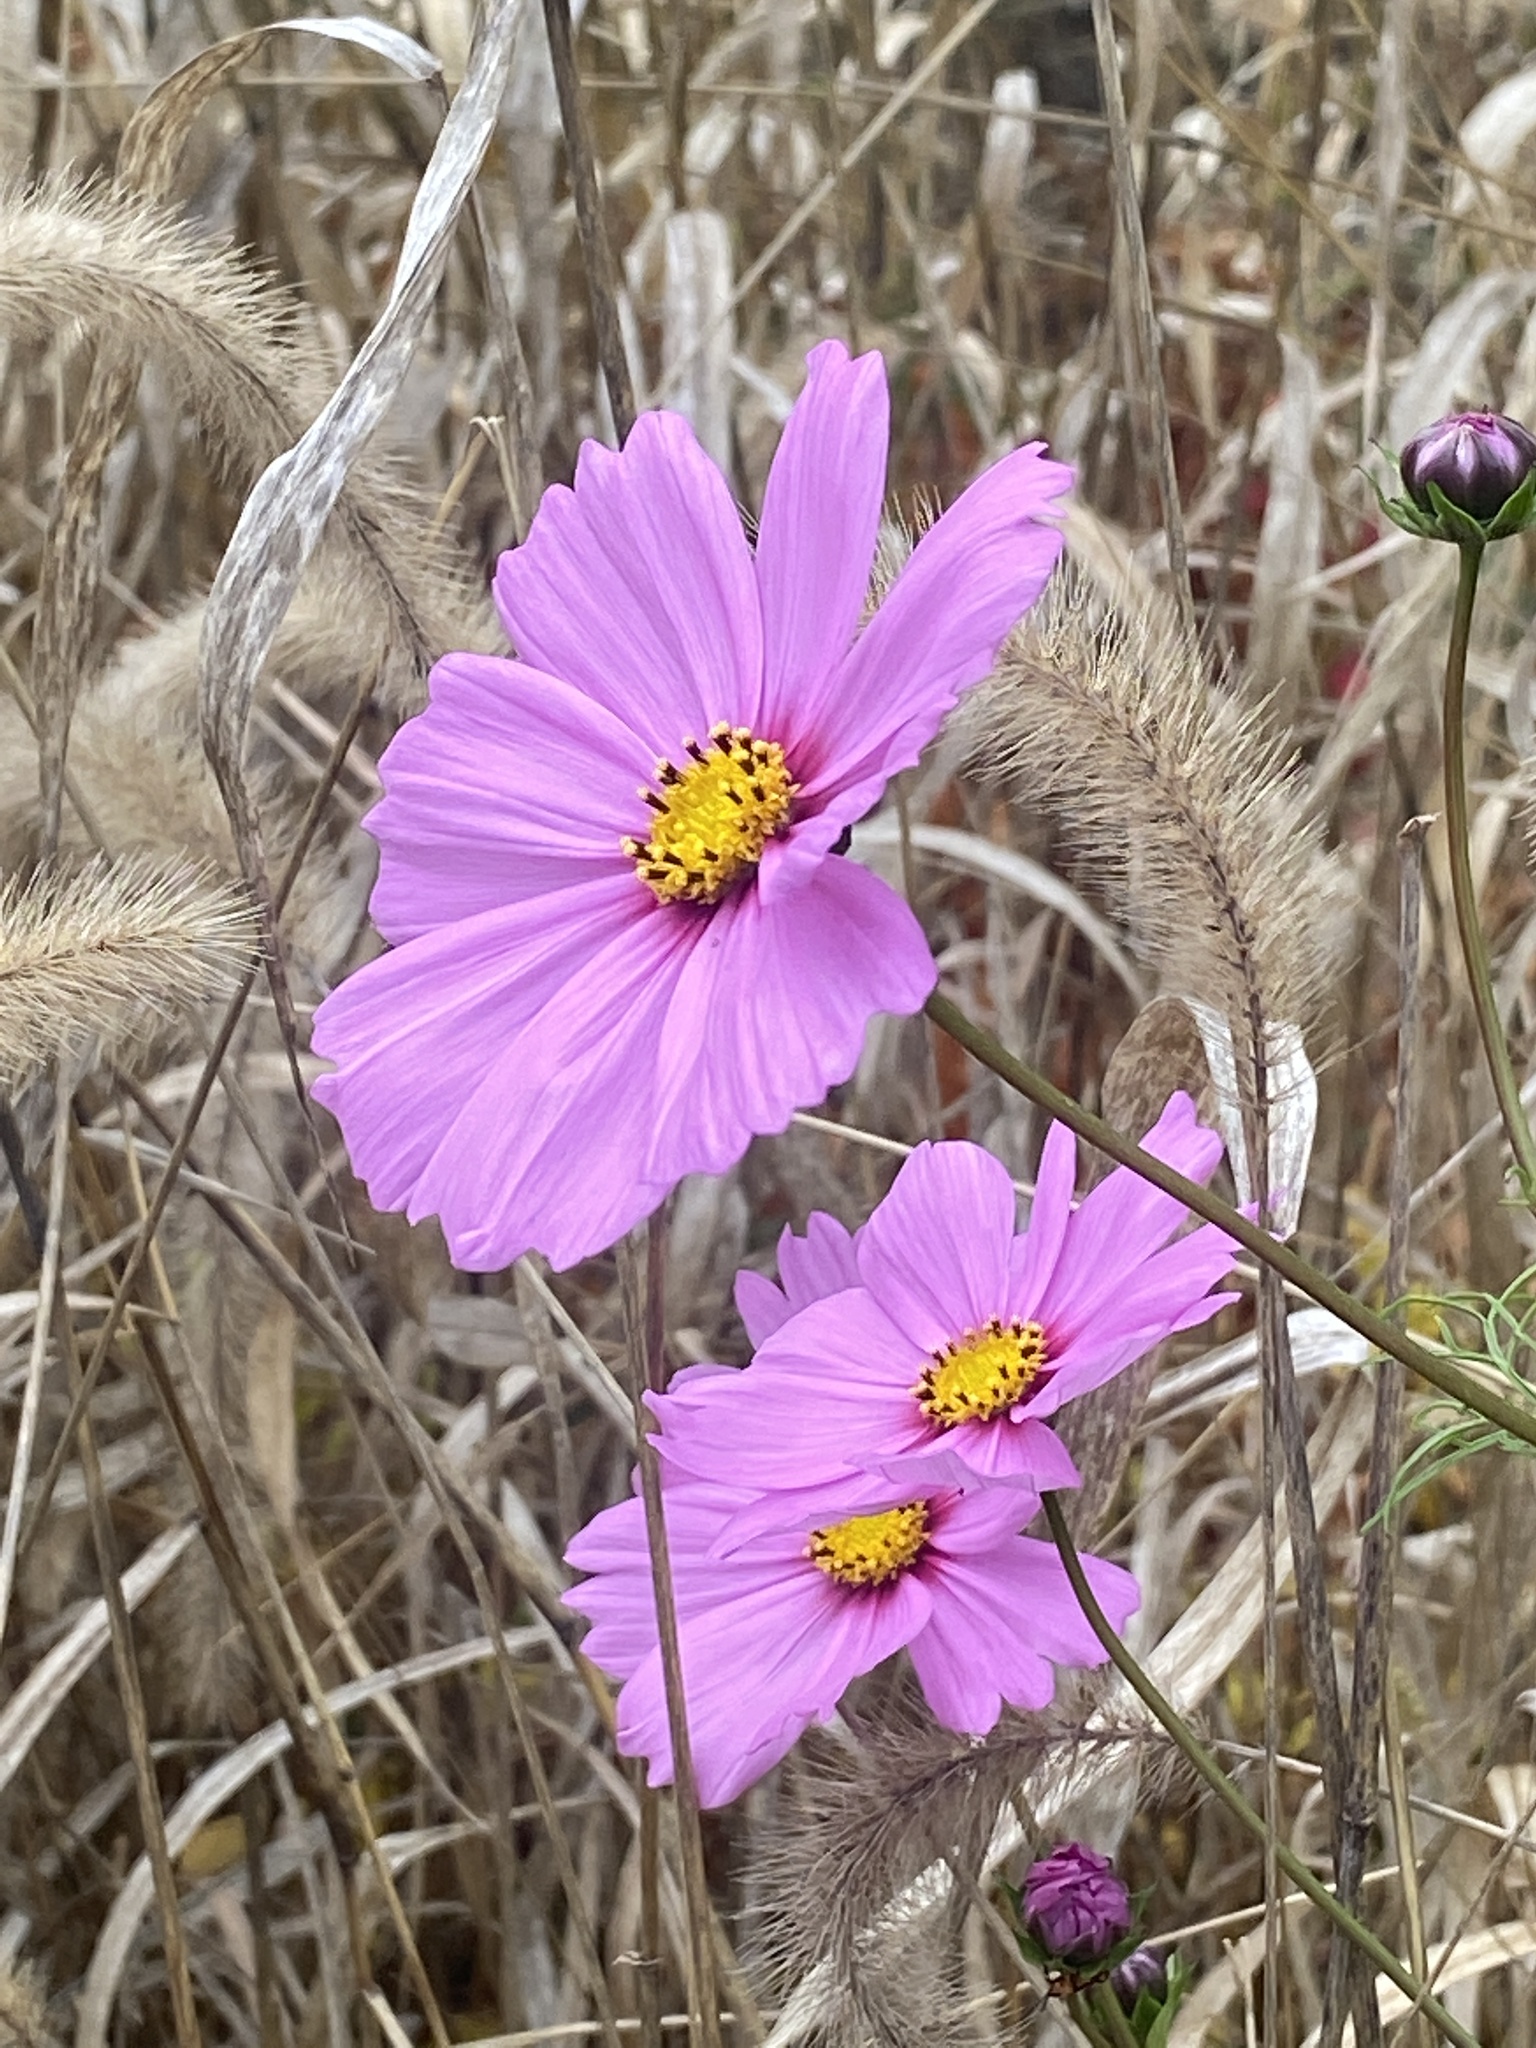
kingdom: Plantae
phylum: Tracheophyta
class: Magnoliopsida
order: Asterales
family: Asteraceae
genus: Cosmos
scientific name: Cosmos bipinnatus
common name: Garden cosmos
